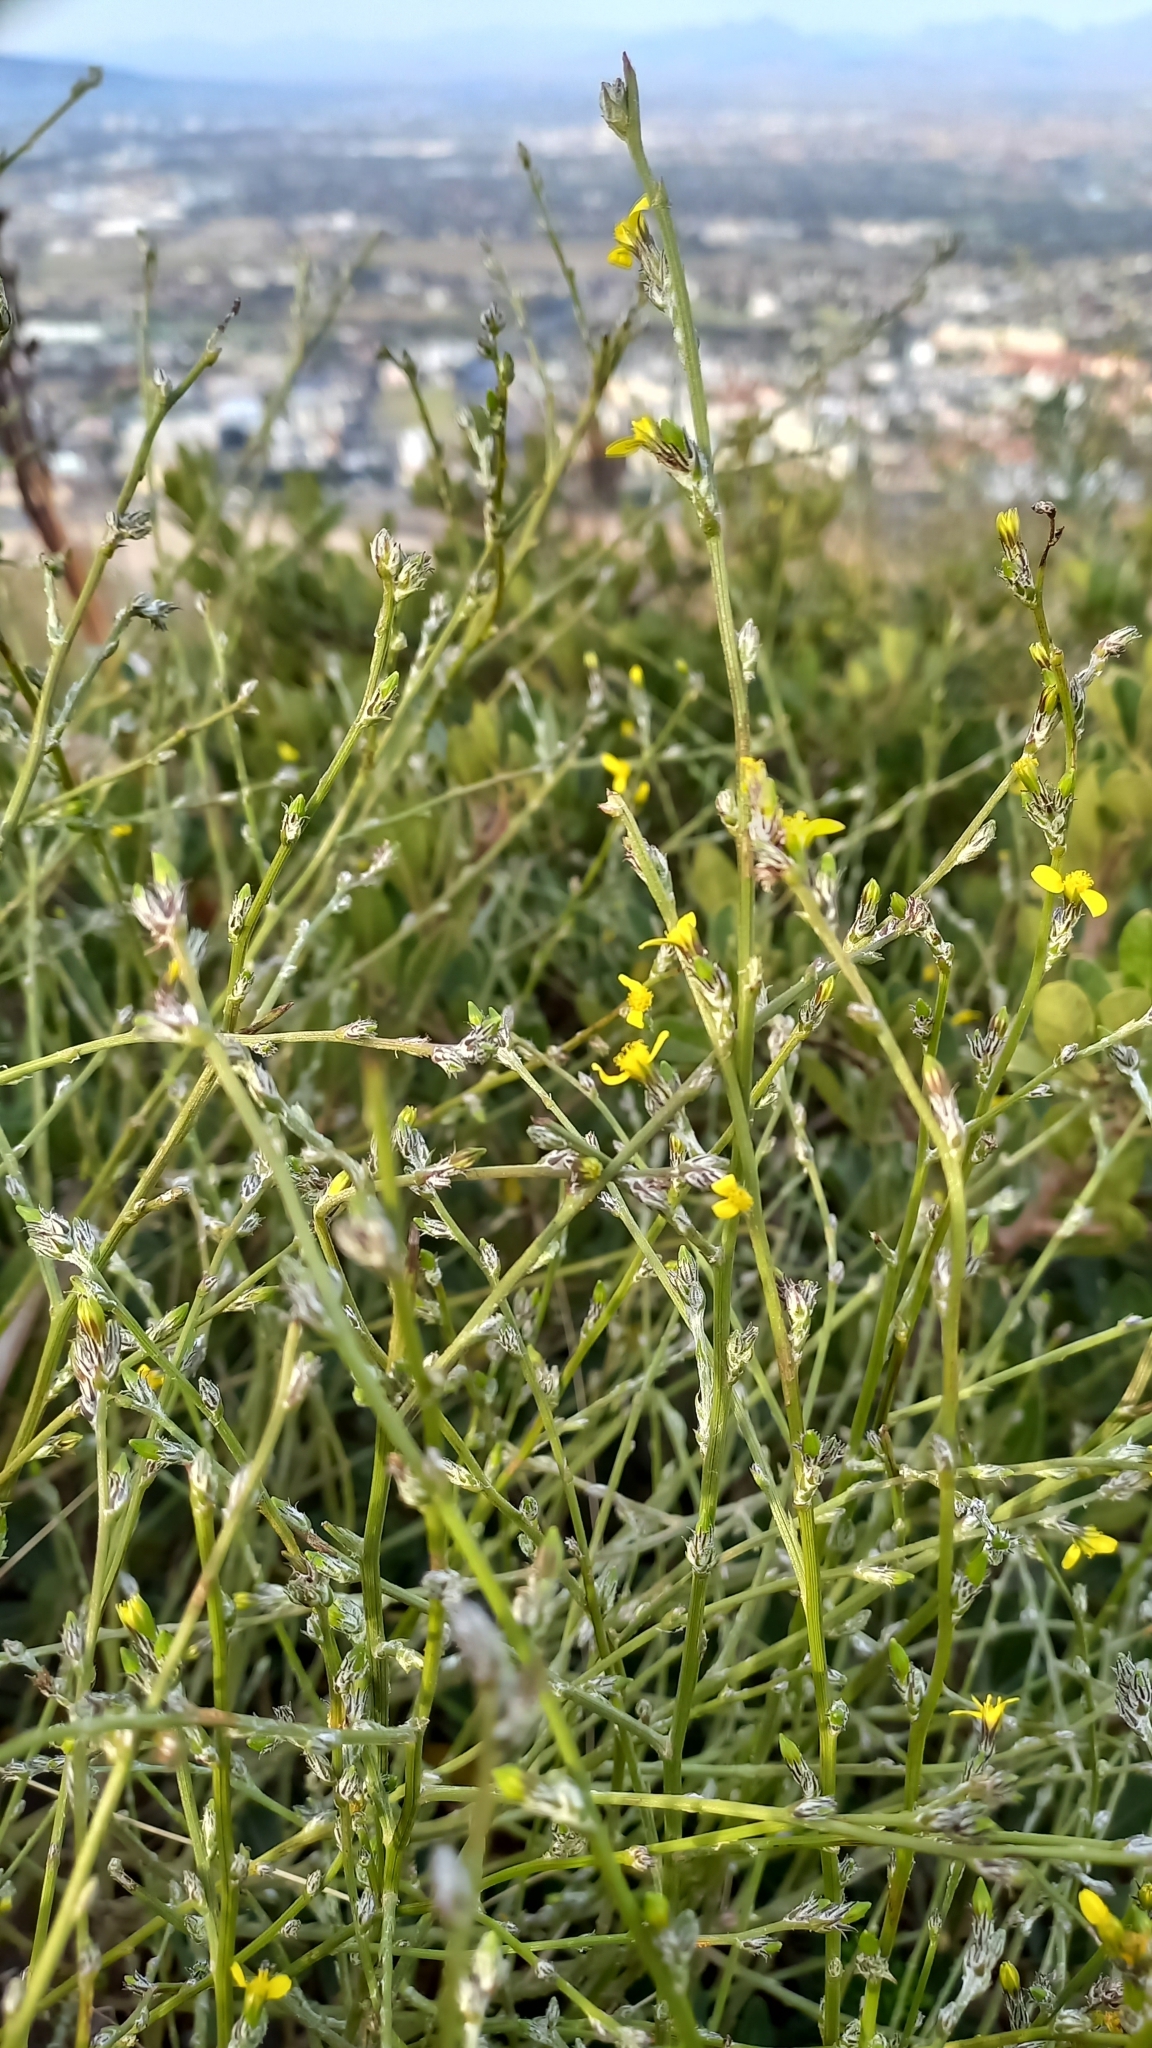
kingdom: Plantae
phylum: Tracheophyta
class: Magnoliopsida
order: Asterales
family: Asteraceae
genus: Senecio
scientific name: Senecio pubigerus
